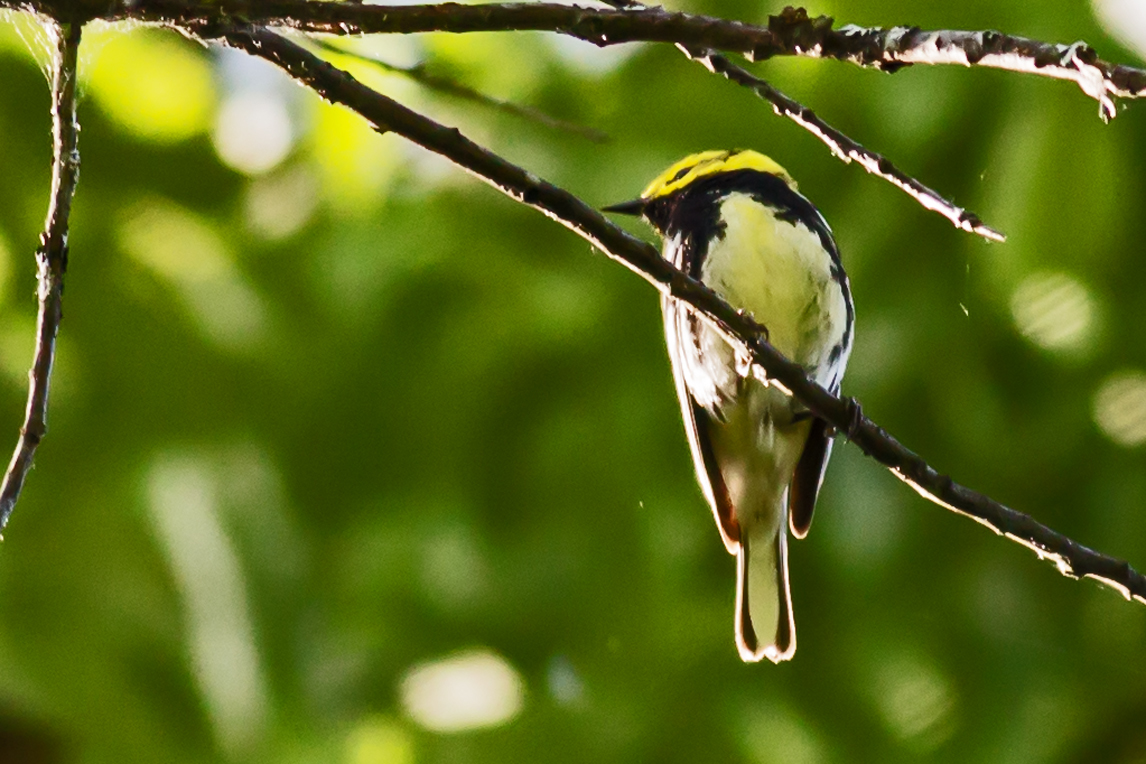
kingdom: Animalia
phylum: Chordata
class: Aves
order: Passeriformes
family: Parulidae
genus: Setophaga
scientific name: Setophaga virens
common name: Black-throated green warbler
